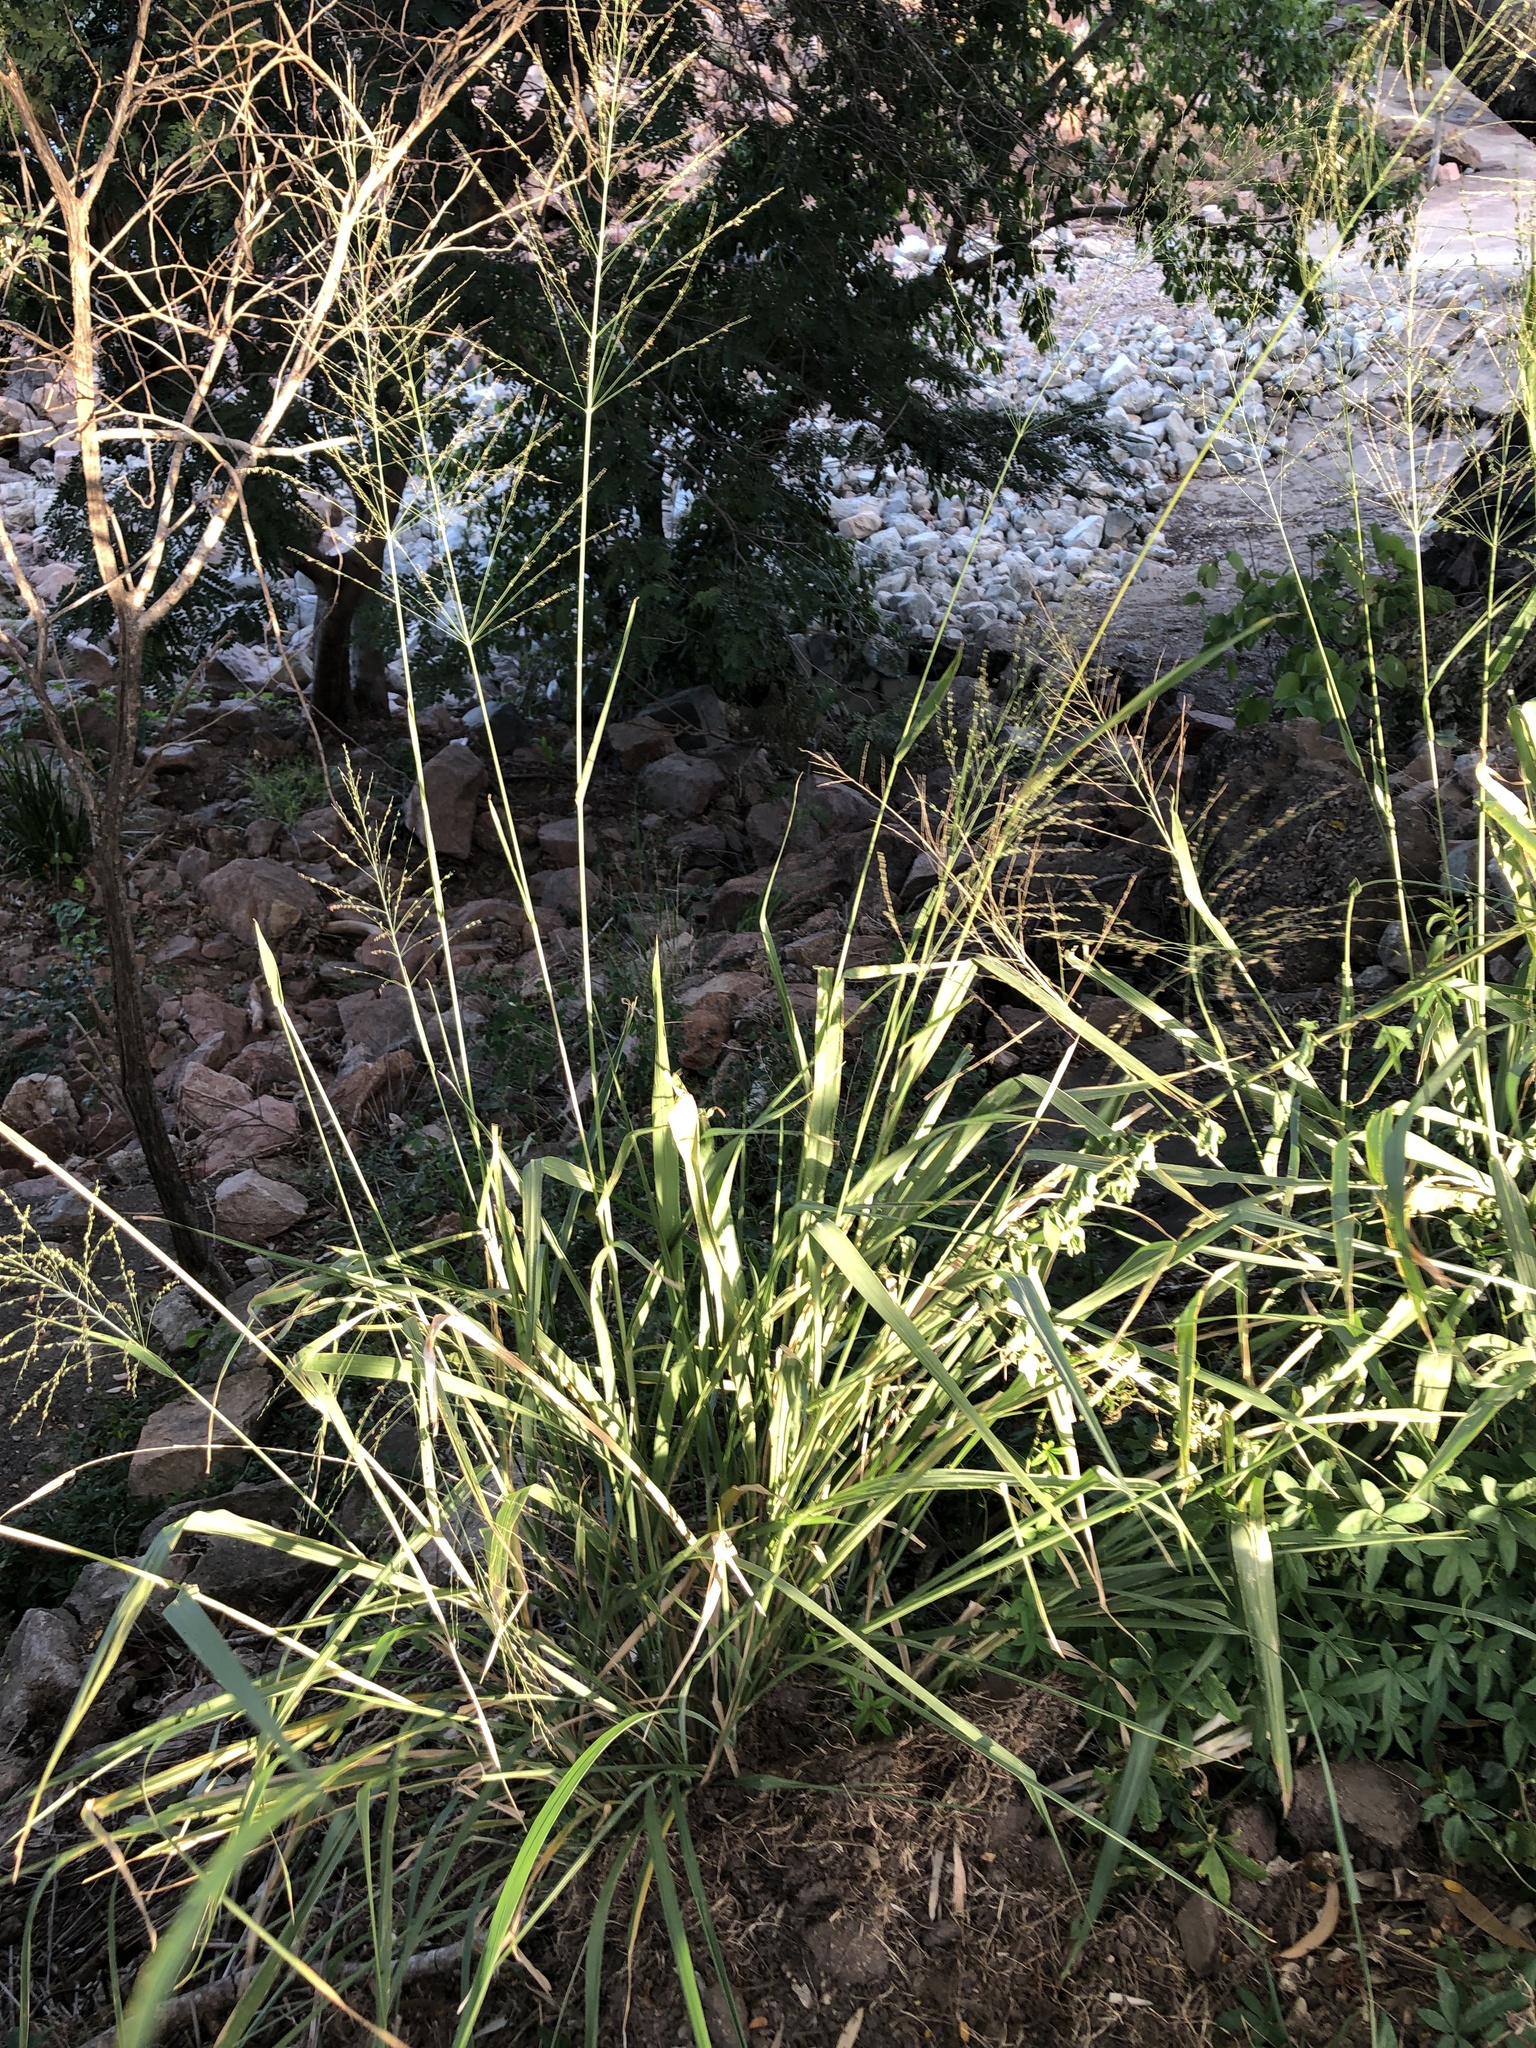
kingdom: Plantae
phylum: Tracheophyta
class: Liliopsida
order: Poales
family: Poaceae
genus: Megathyrsus
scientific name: Megathyrsus maximus
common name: Guineagrass
